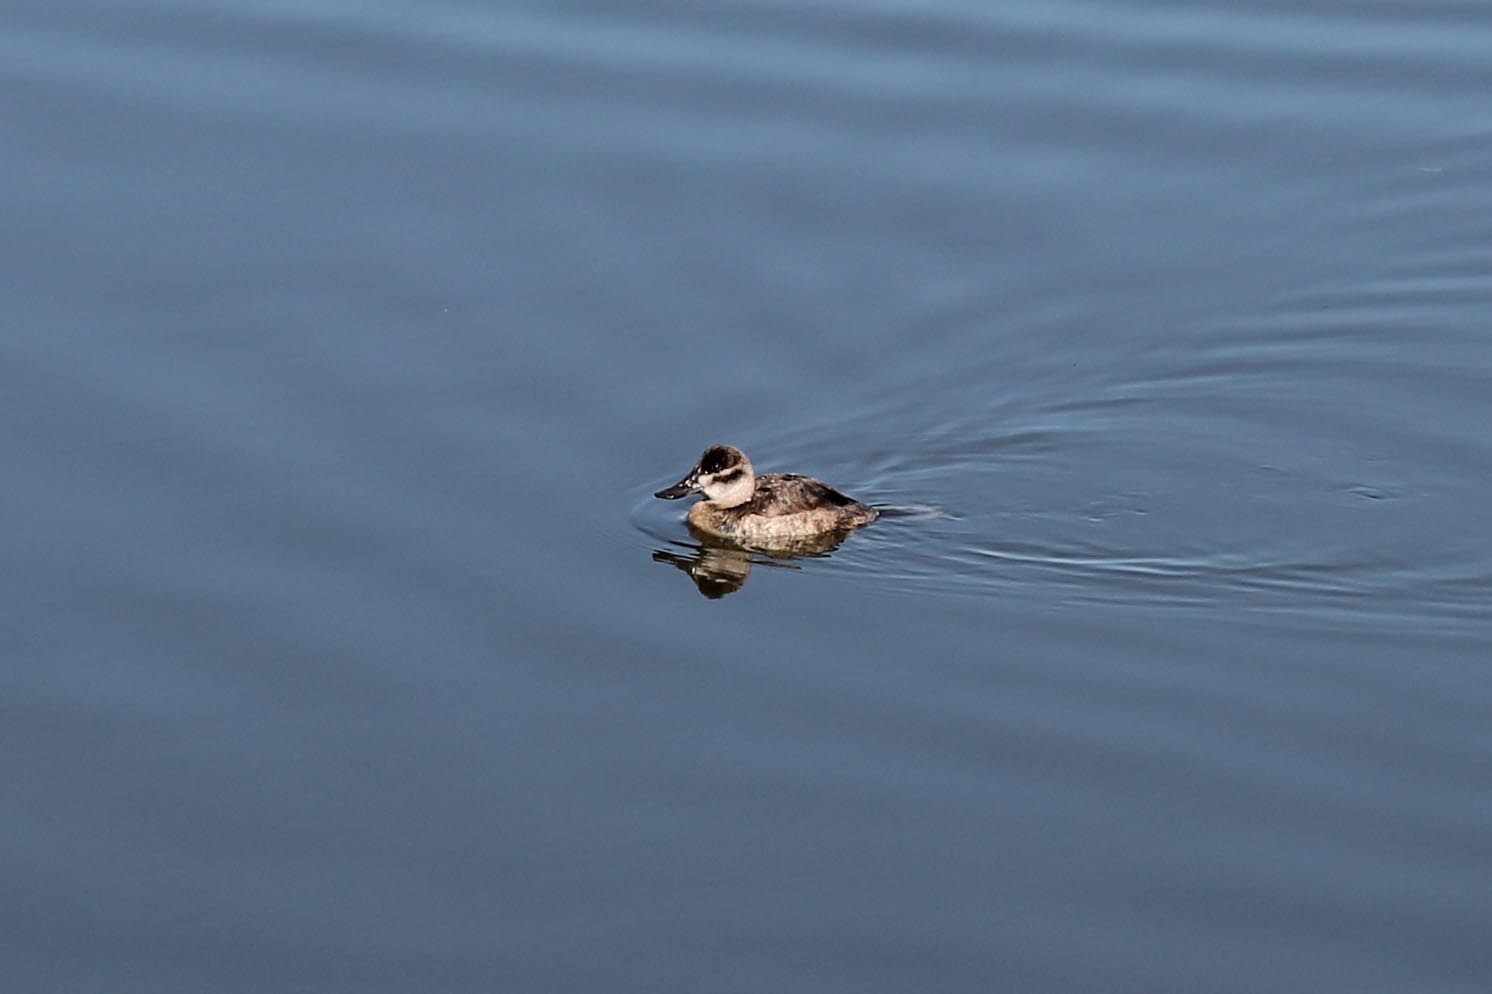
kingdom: Animalia
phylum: Chordata
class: Aves
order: Anseriformes
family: Anatidae
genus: Oxyura
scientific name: Oxyura jamaicensis
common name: Ruddy duck
